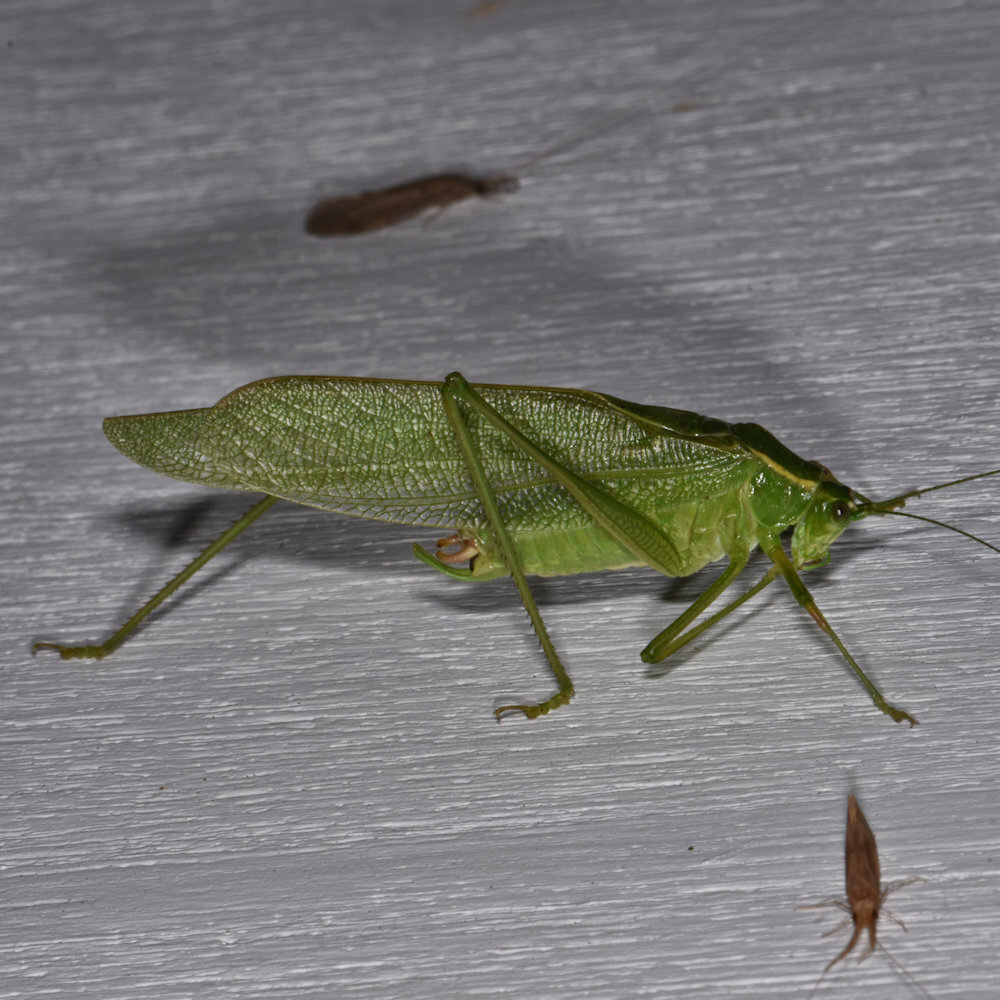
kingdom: Animalia
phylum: Arthropoda
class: Insecta
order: Orthoptera
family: Tettigoniidae
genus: Scudderia
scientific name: Scudderia septentrionalis
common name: Northern bush-katydid
